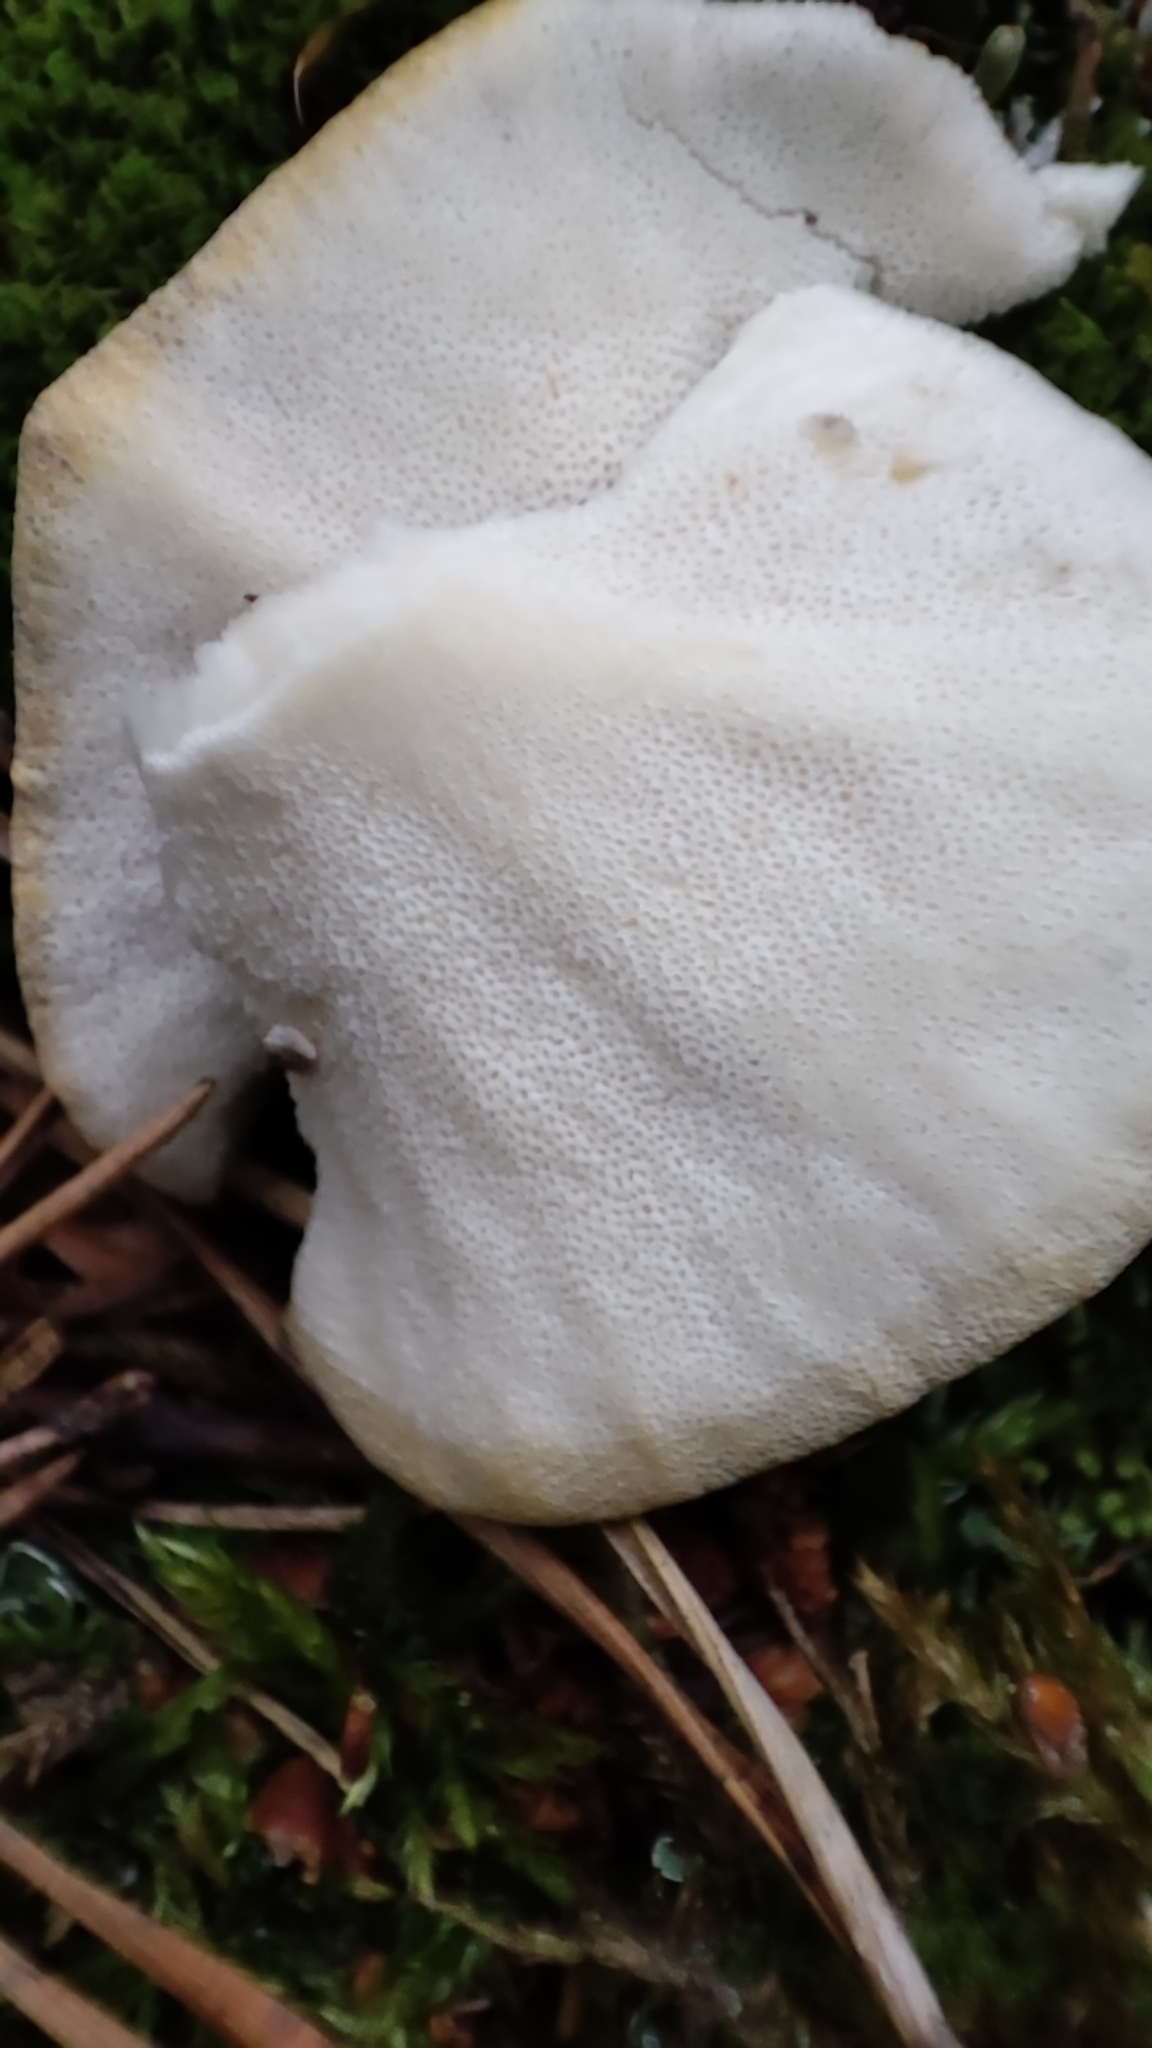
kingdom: Fungi
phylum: Basidiomycota
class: Agaricomycetes
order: Polyporales
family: Polyporaceae
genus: Polyporus
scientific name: Polyporus umbellatus
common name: Umbrella polypore
